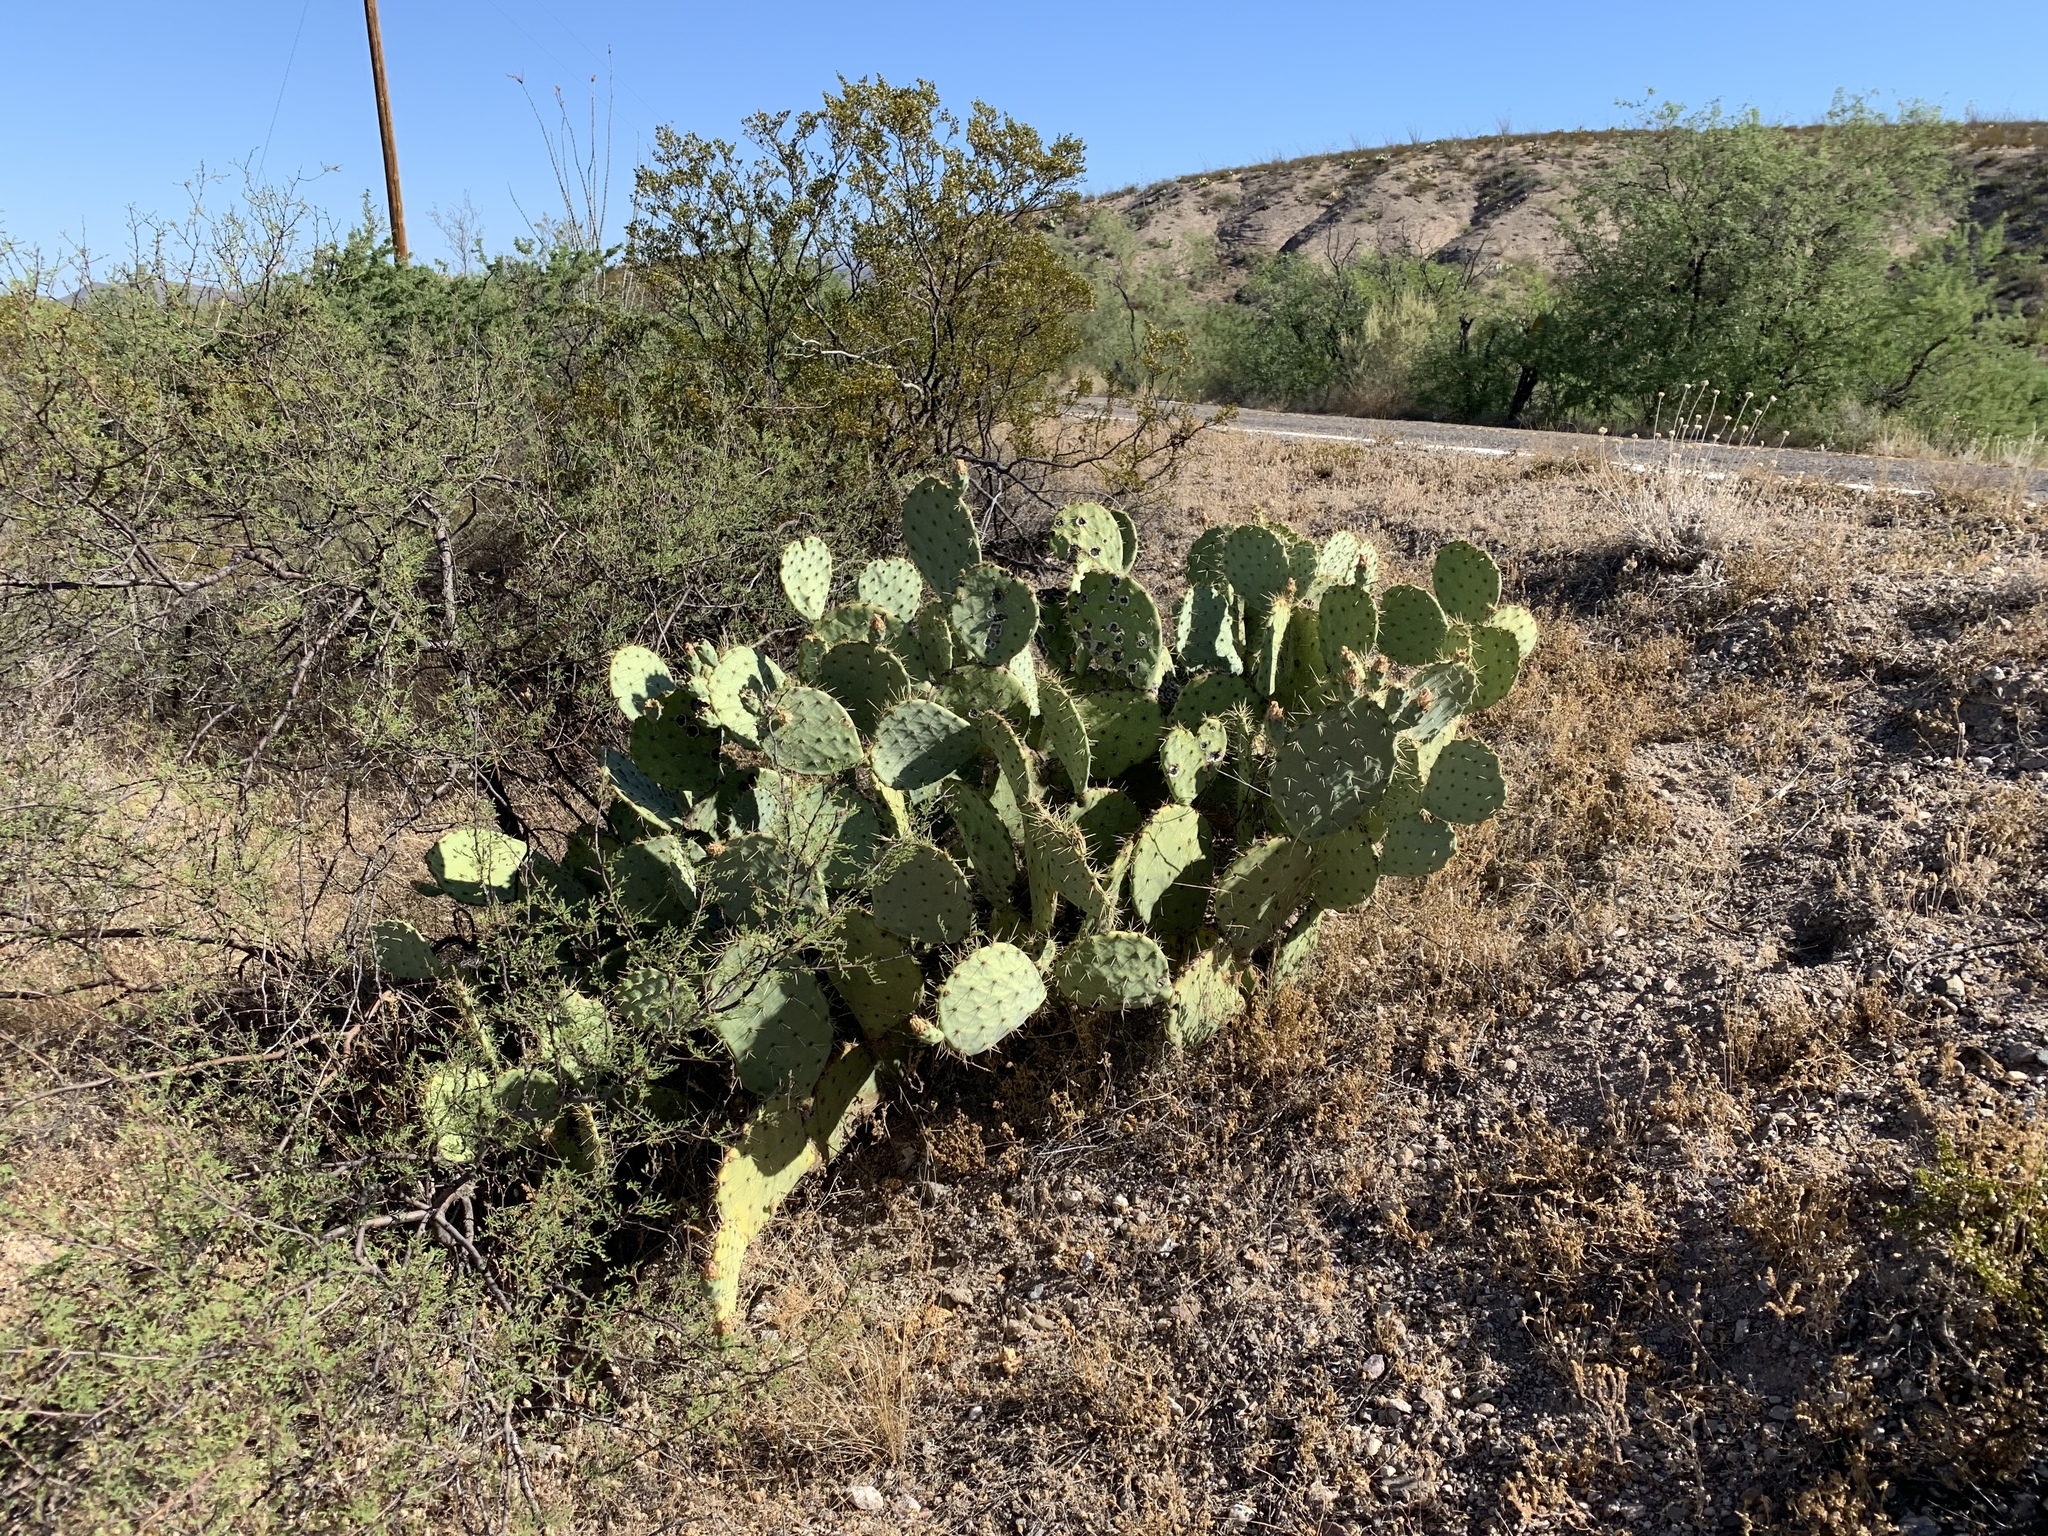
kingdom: Plantae
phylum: Tracheophyta
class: Magnoliopsida
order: Caryophyllales
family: Cactaceae
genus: Opuntia
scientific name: Opuntia engelmannii
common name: Cactus-apple
